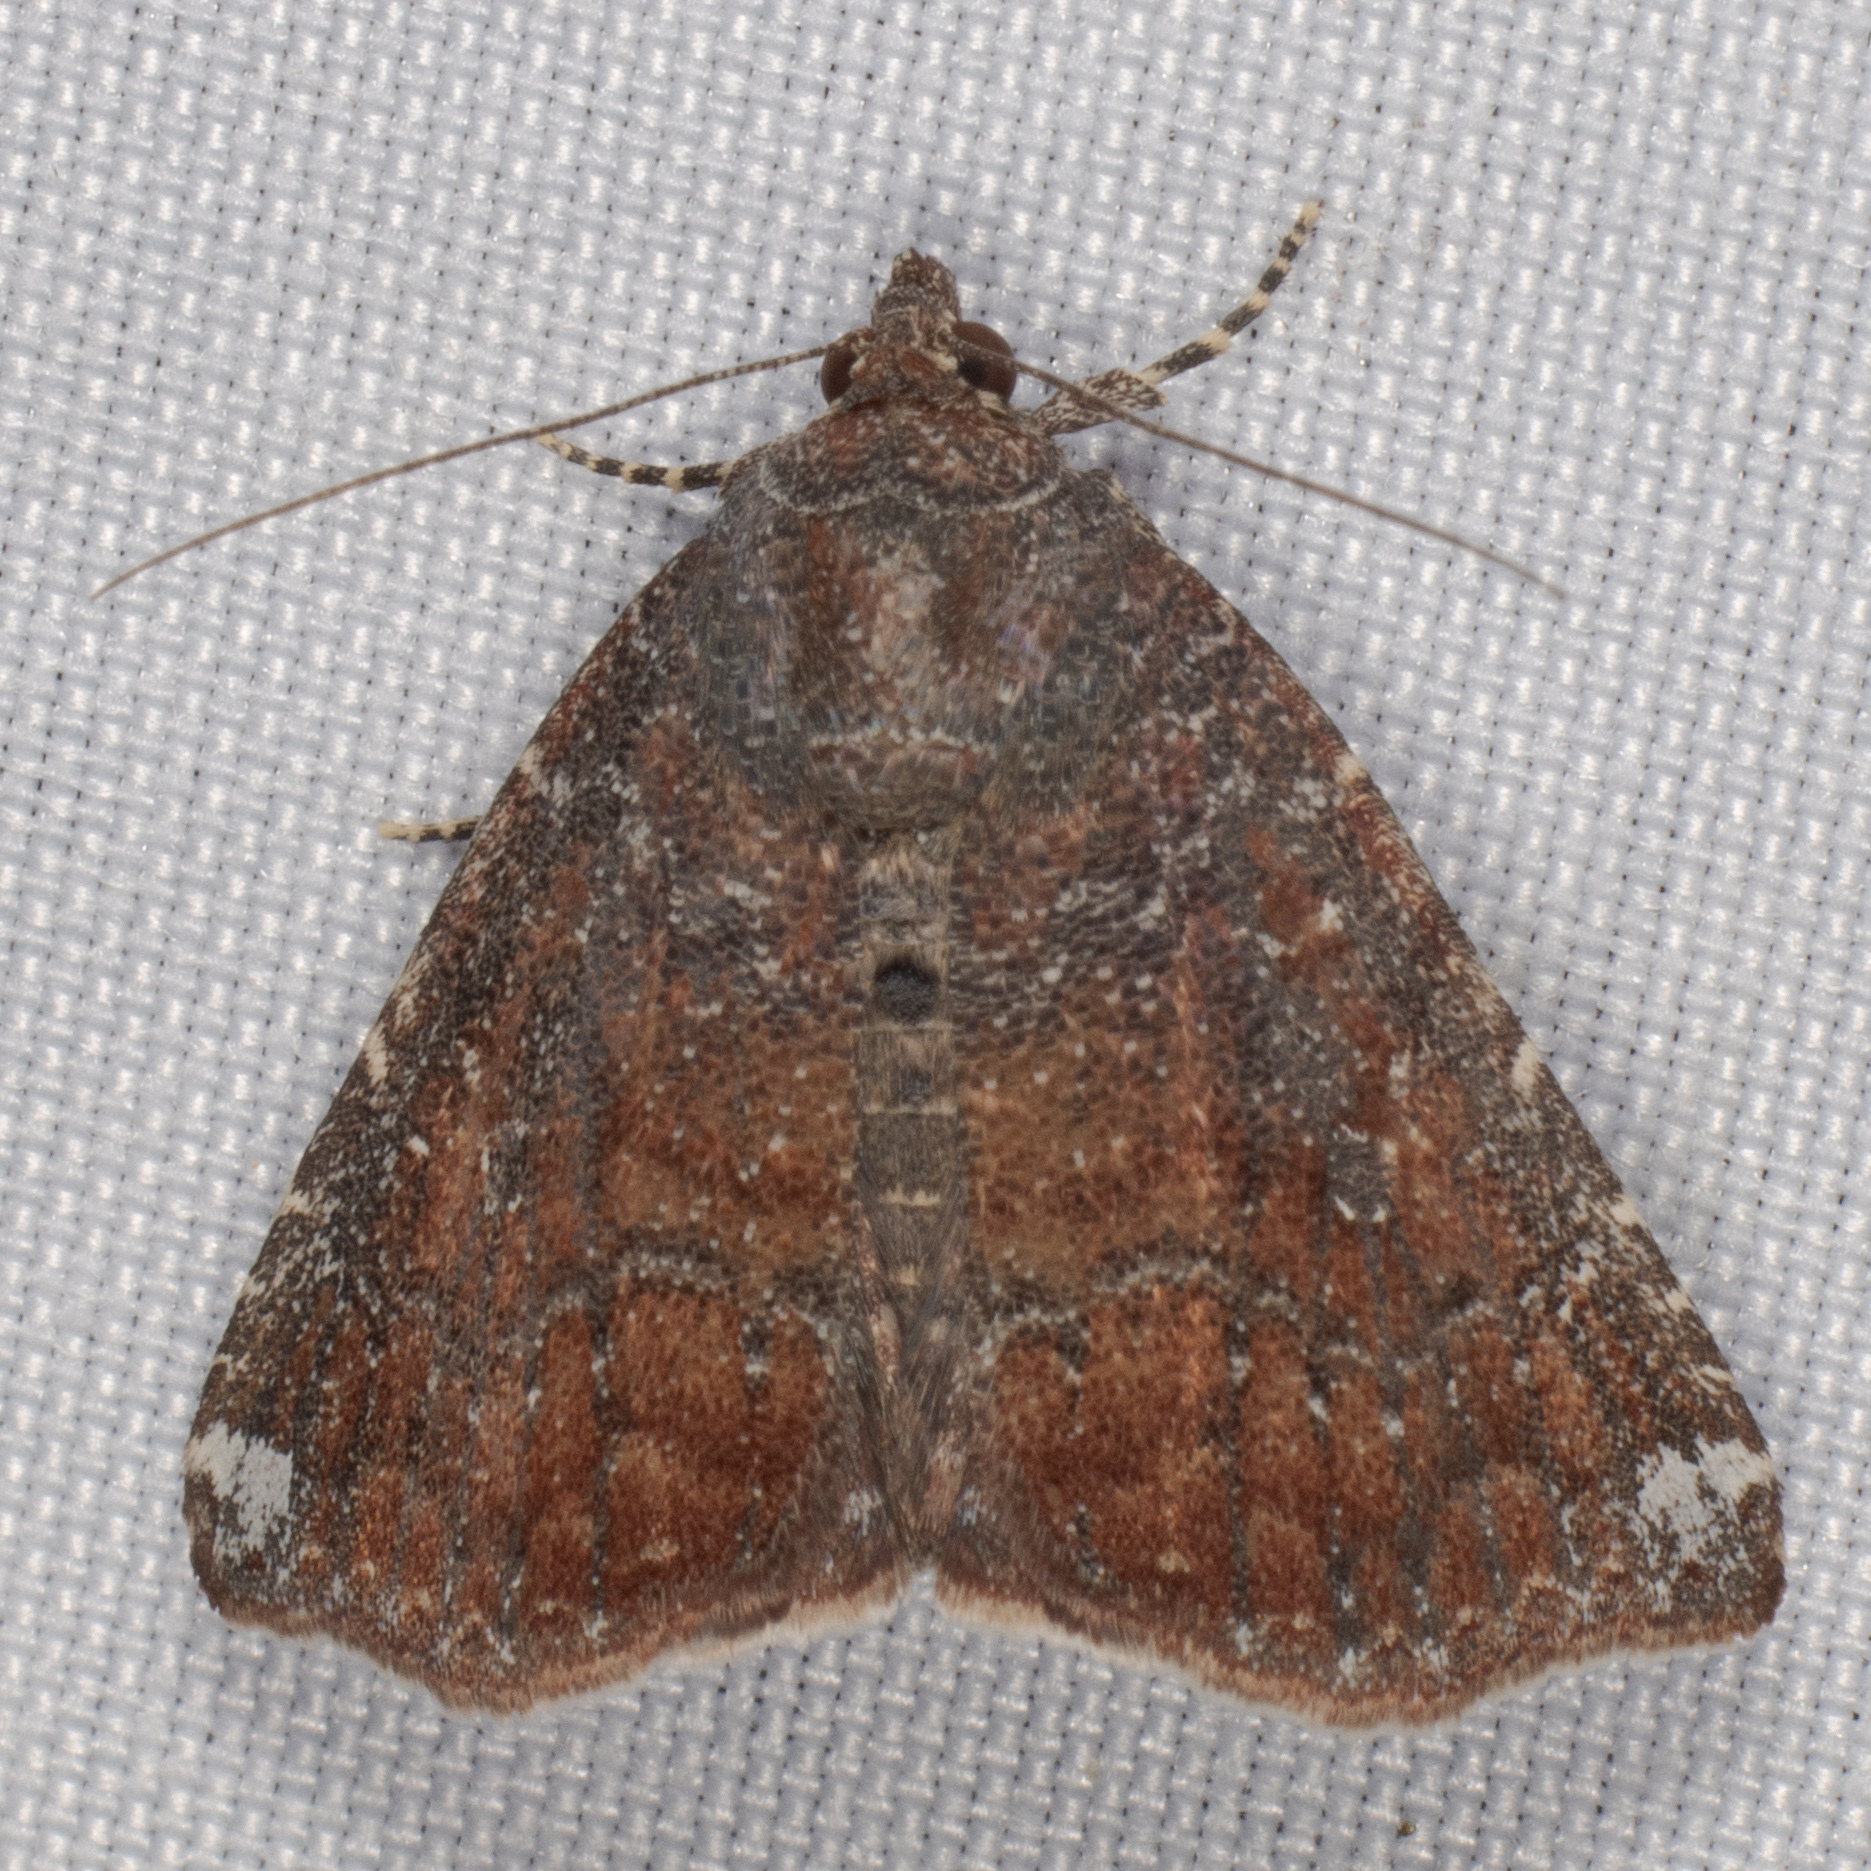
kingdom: Animalia
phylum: Arthropoda
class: Insecta
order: Lepidoptera
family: Noctuidae
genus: Amyna
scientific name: Amyna bullula
